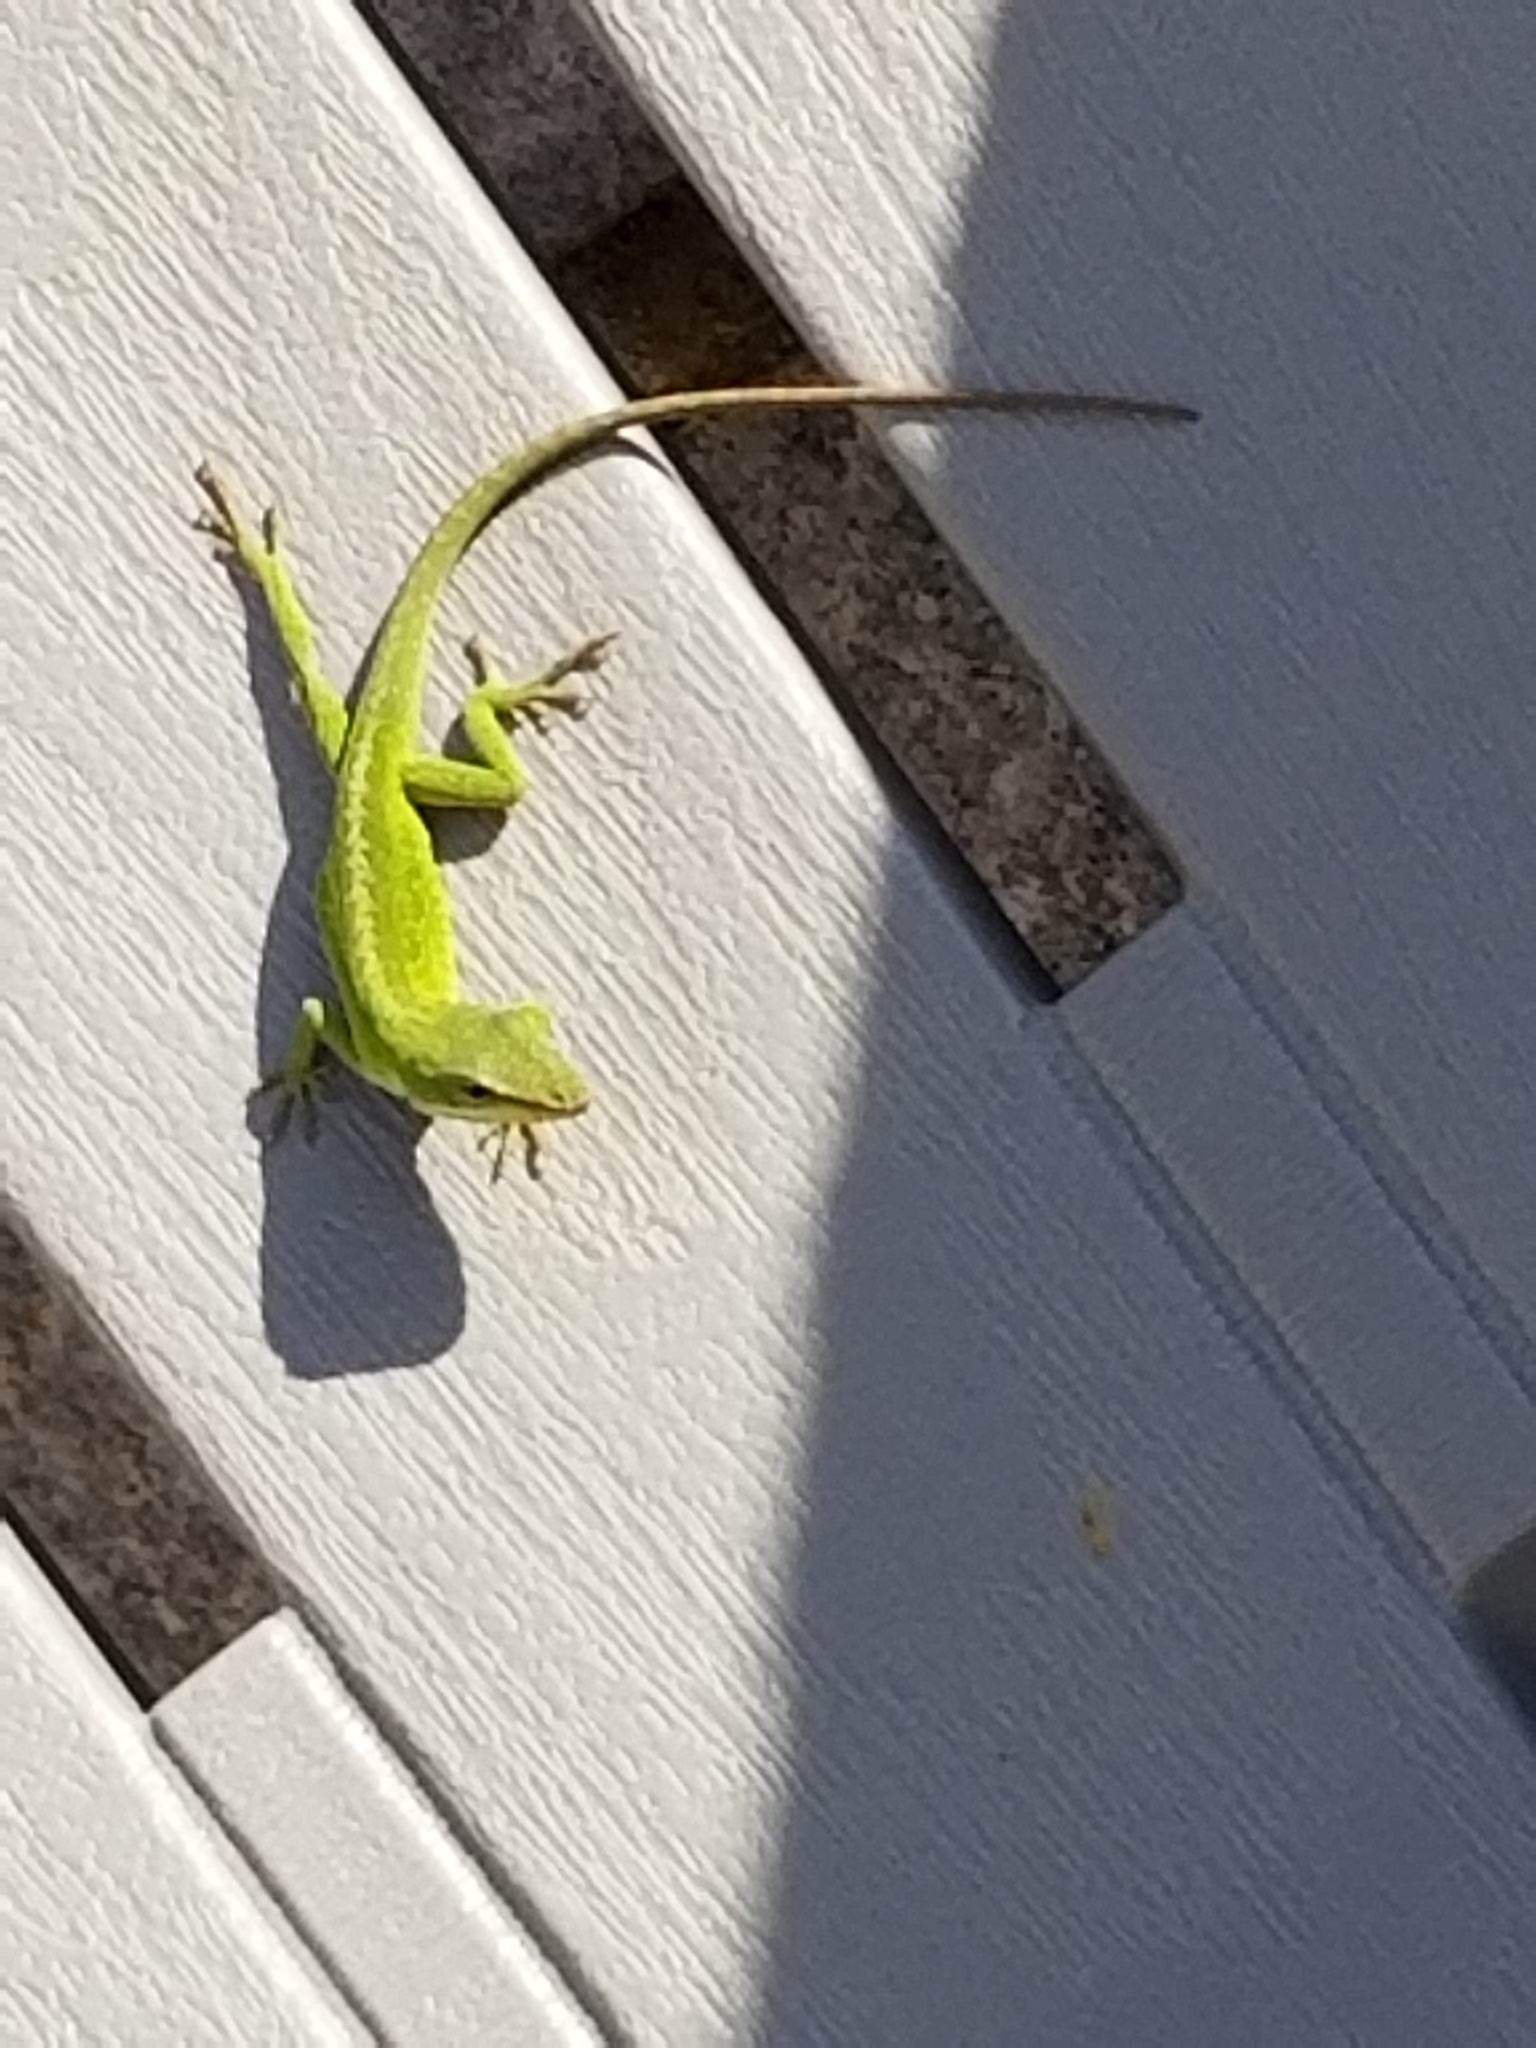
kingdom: Animalia
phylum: Chordata
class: Squamata
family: Dactyloidae
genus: Anolis
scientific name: Anolis carolinensis
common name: Green anole
